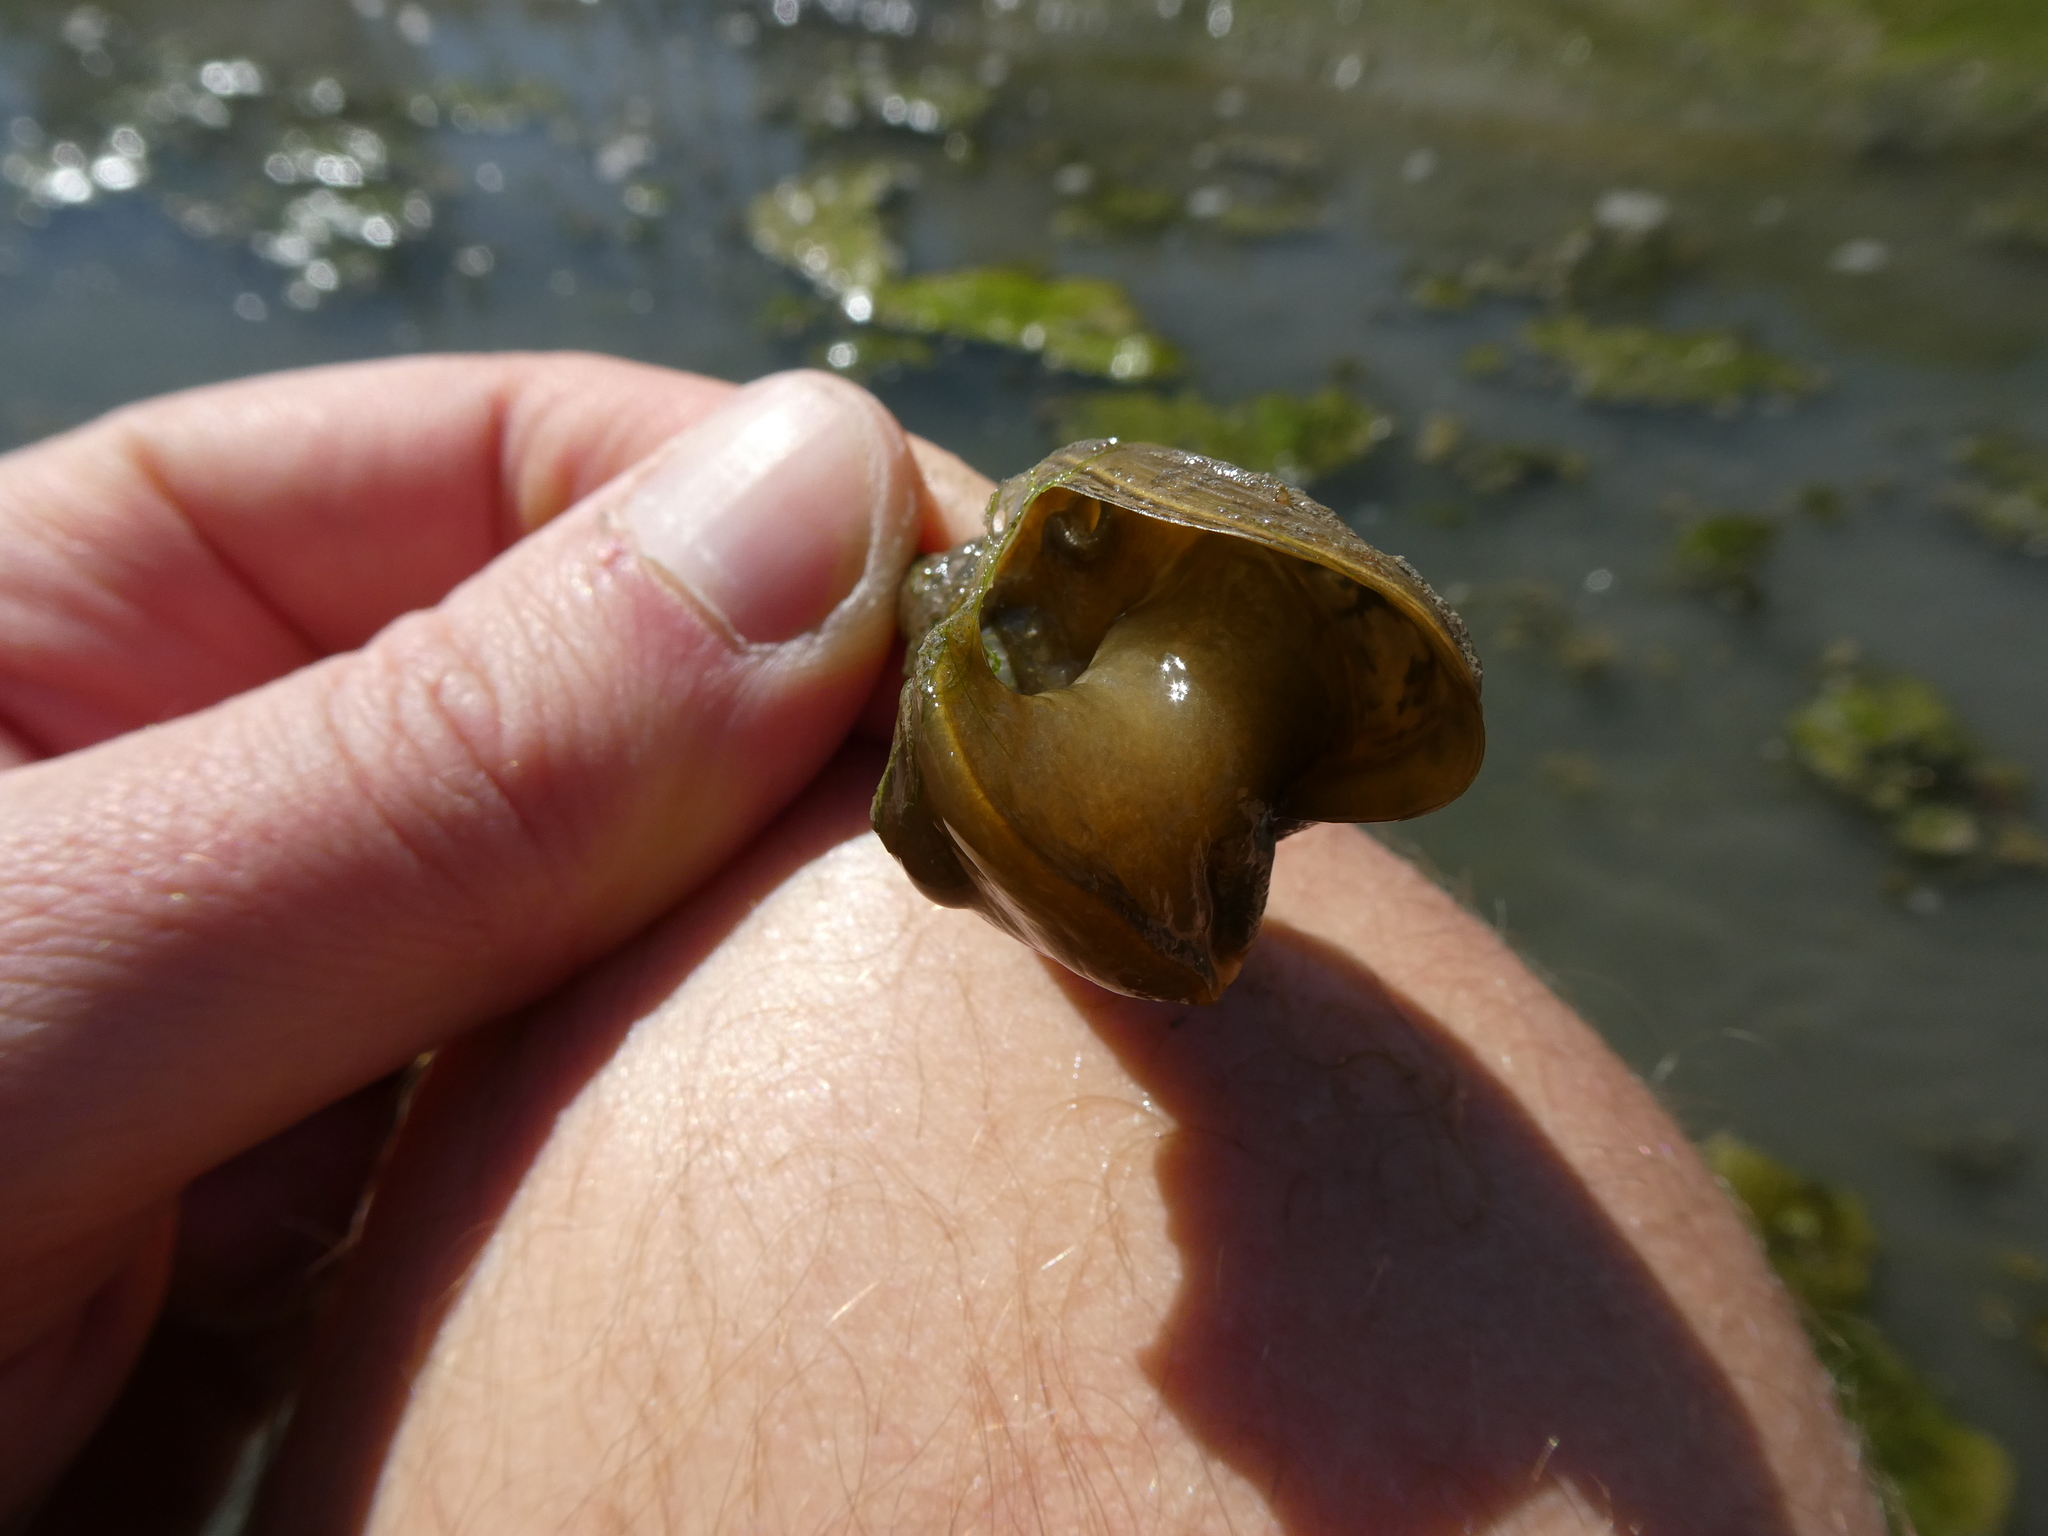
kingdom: Animalia
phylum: Mollusca
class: Gastropoda
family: Lymnaeidae
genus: Lymnaea
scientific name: Lymnaea stagnalis
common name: Great pond snail
